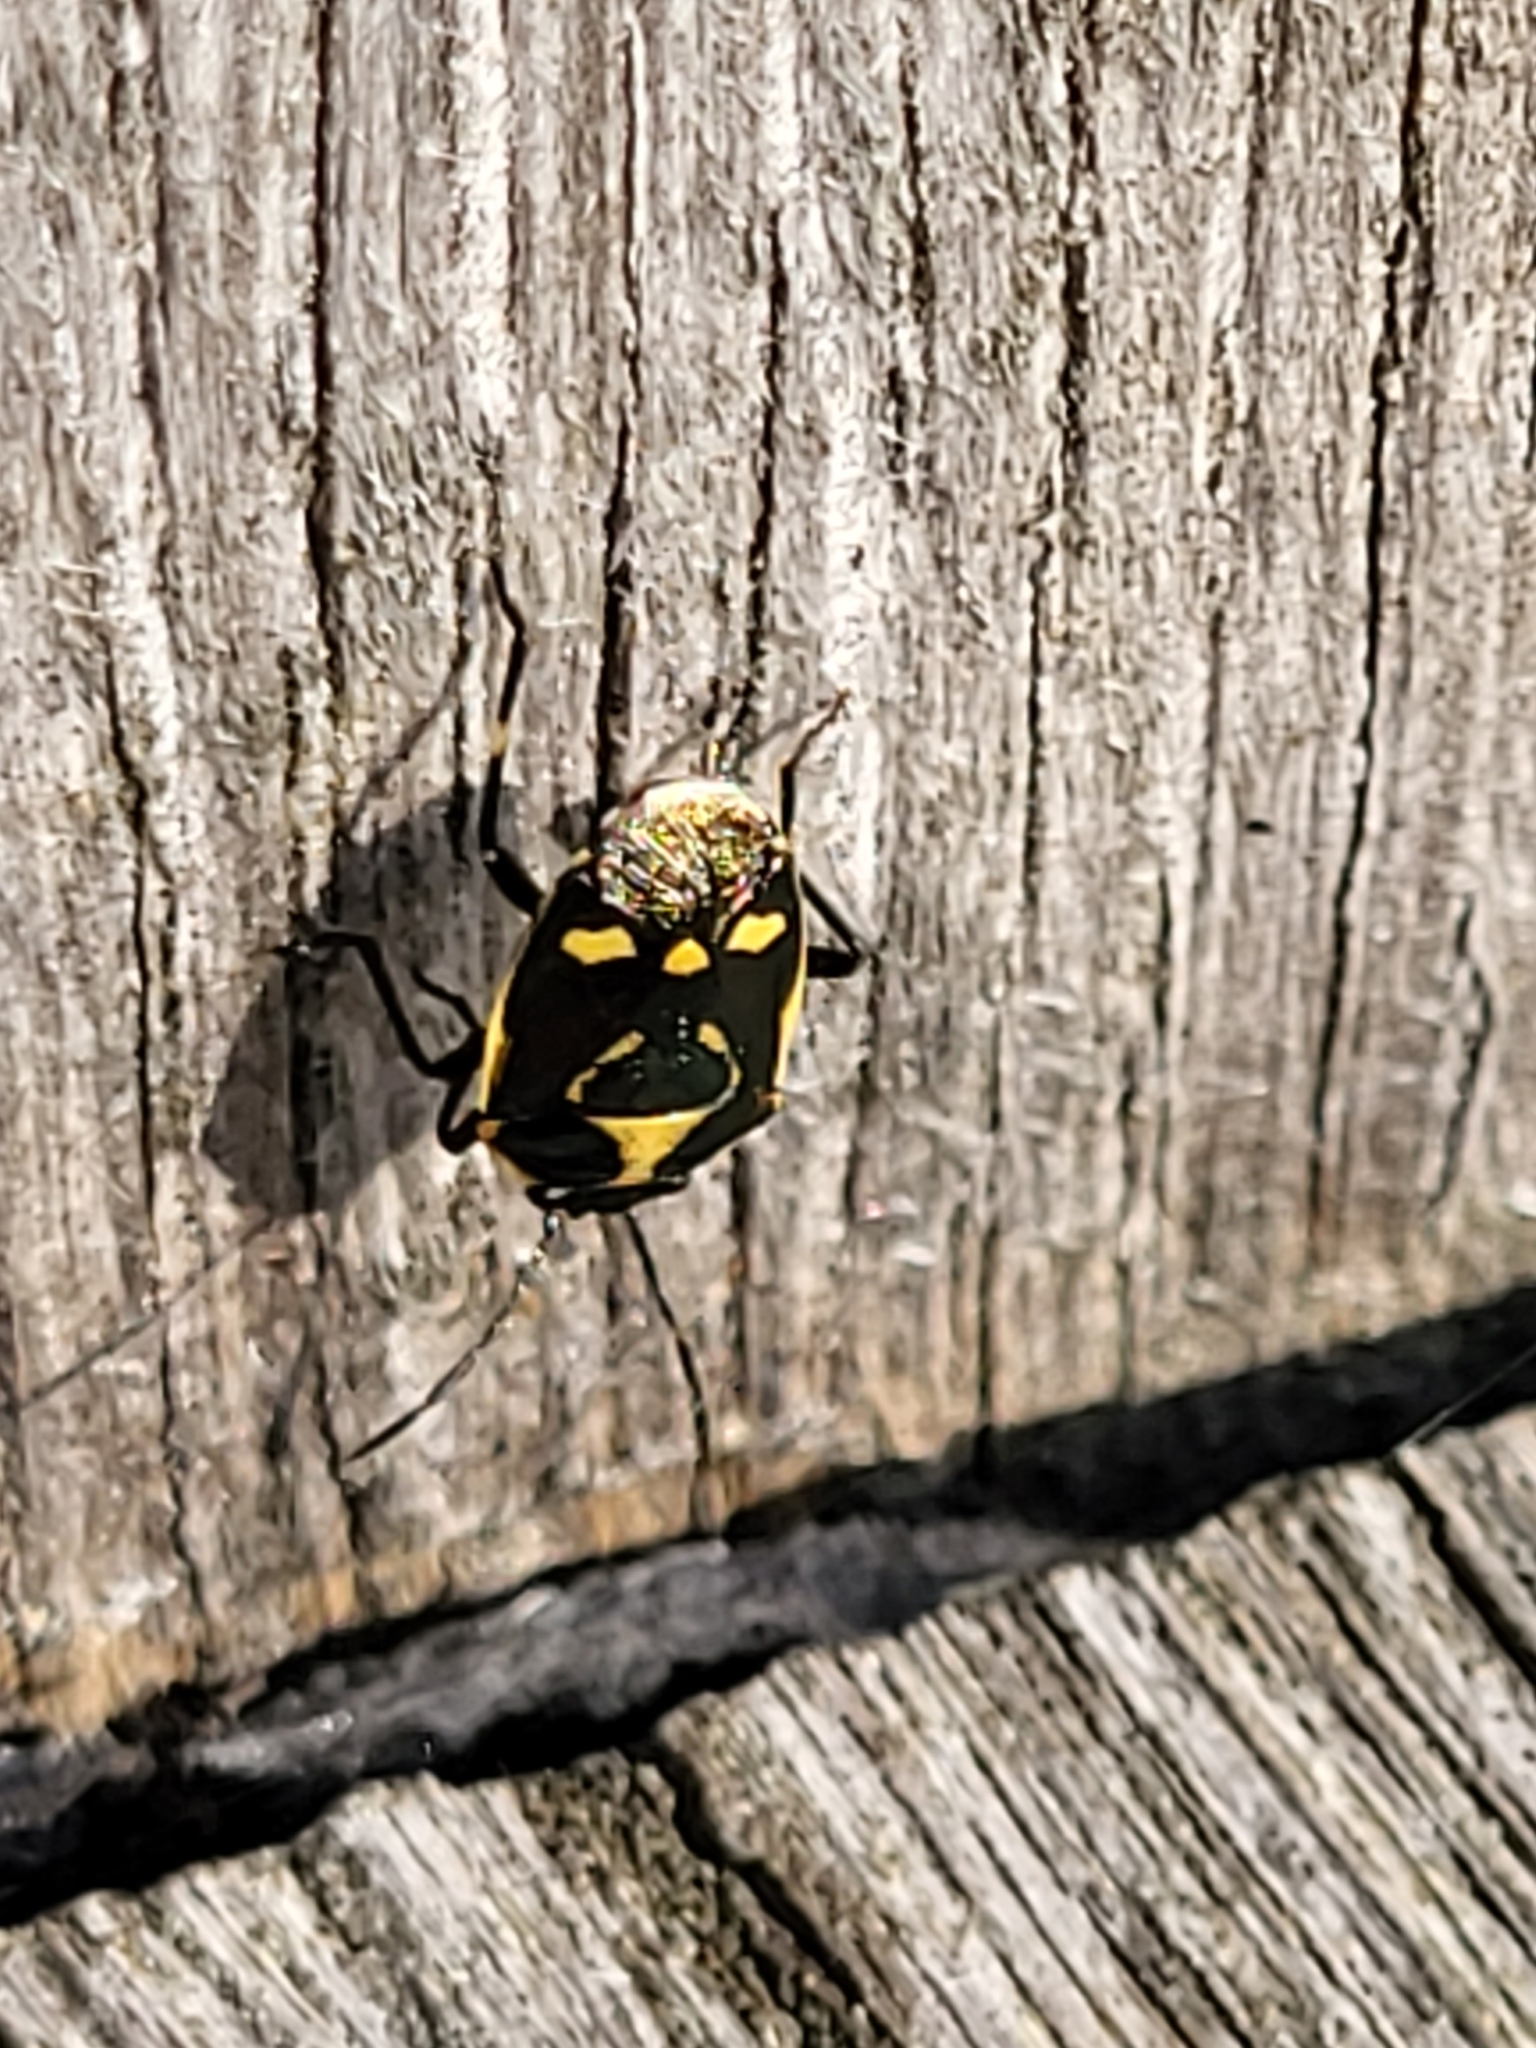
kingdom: Animalia
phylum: Arthropoda
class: Insecta
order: Hemiptera
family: Pentatomidae
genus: Eurydema
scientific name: Eurydema oleracea
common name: Cabbage bug
